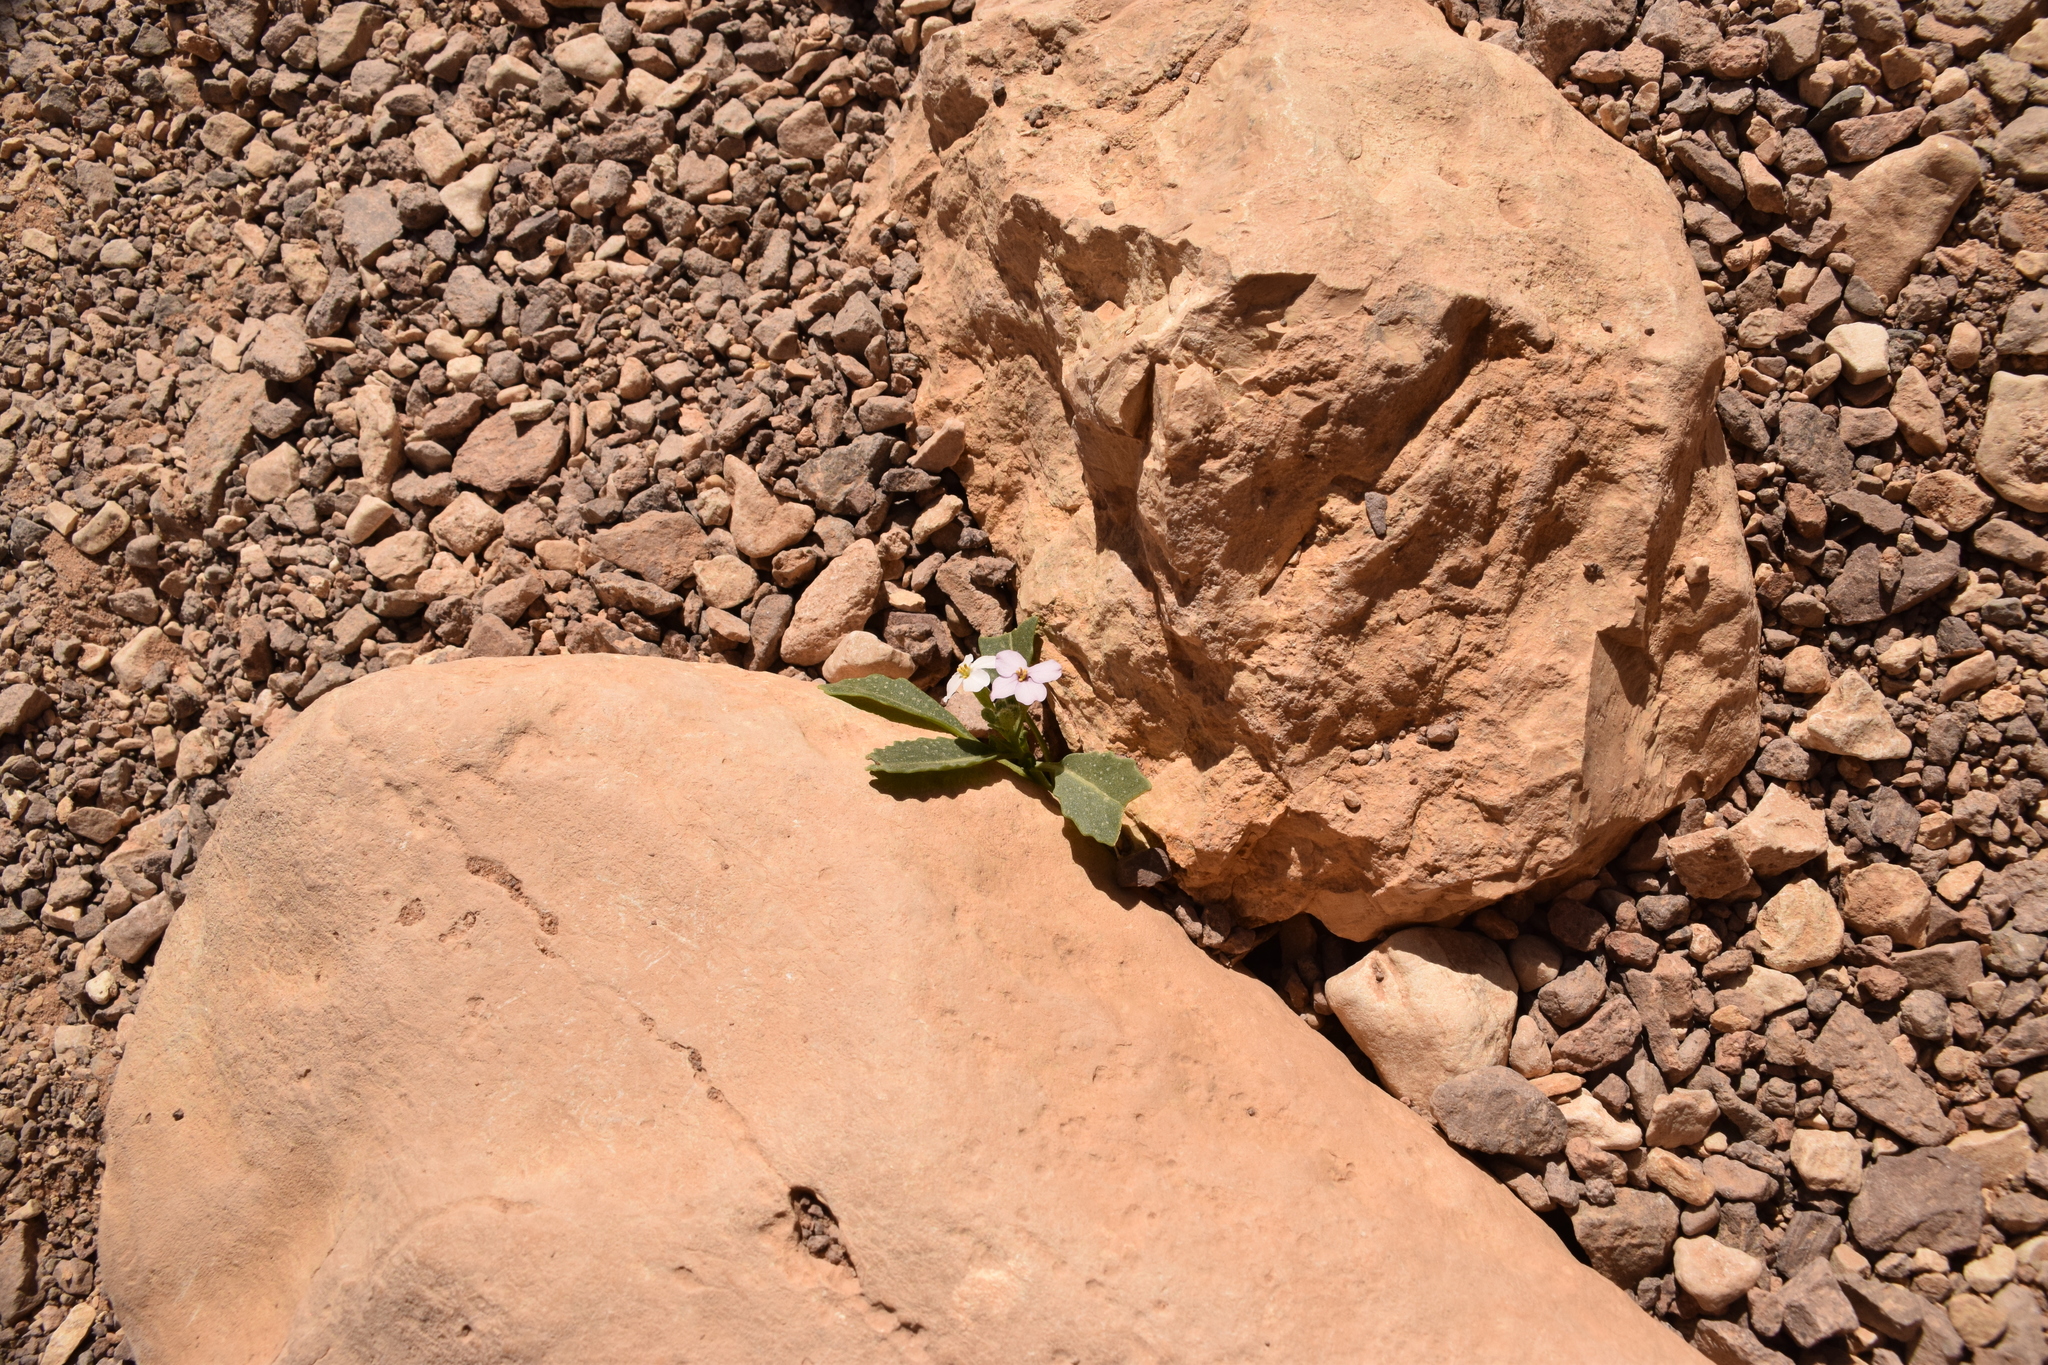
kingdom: Plantae
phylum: Tracheophyta
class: Magnoliopsida
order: Brassicales
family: Brassicaceae
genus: Diplotaxis
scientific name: Diplotaxis acris
